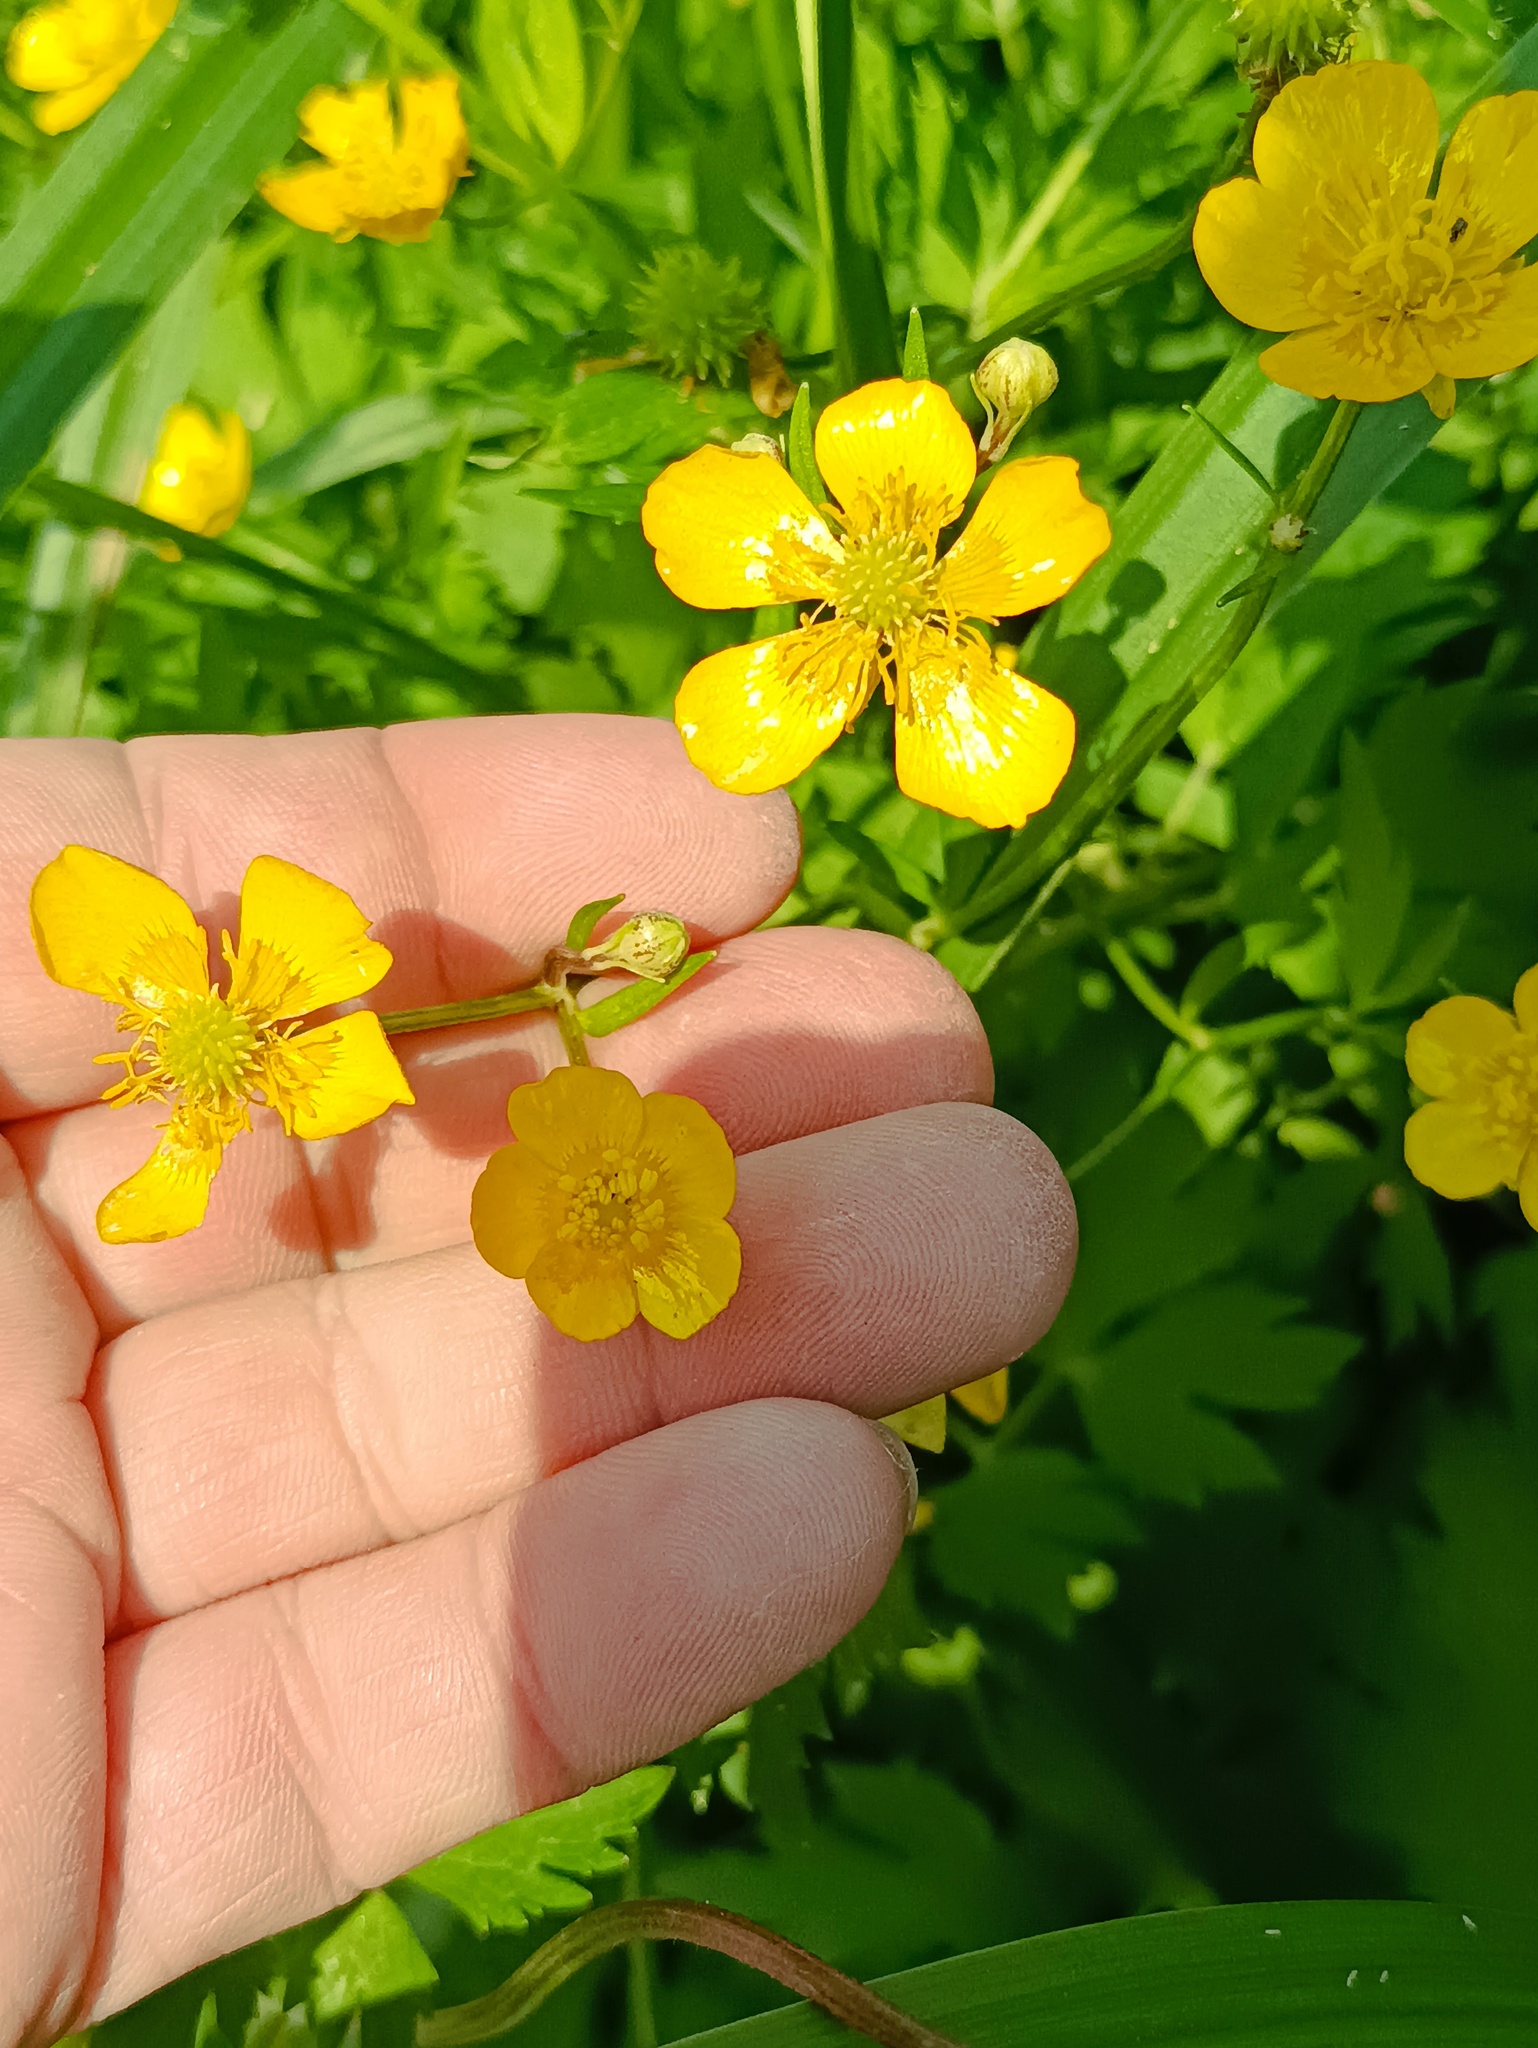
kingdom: Plantae
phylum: Tracheophyta
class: Magnoliopsida
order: Ranunculales
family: Ranunculaceae
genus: Ranunculus
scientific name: Ranunculus repens
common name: Creeping buttercup
